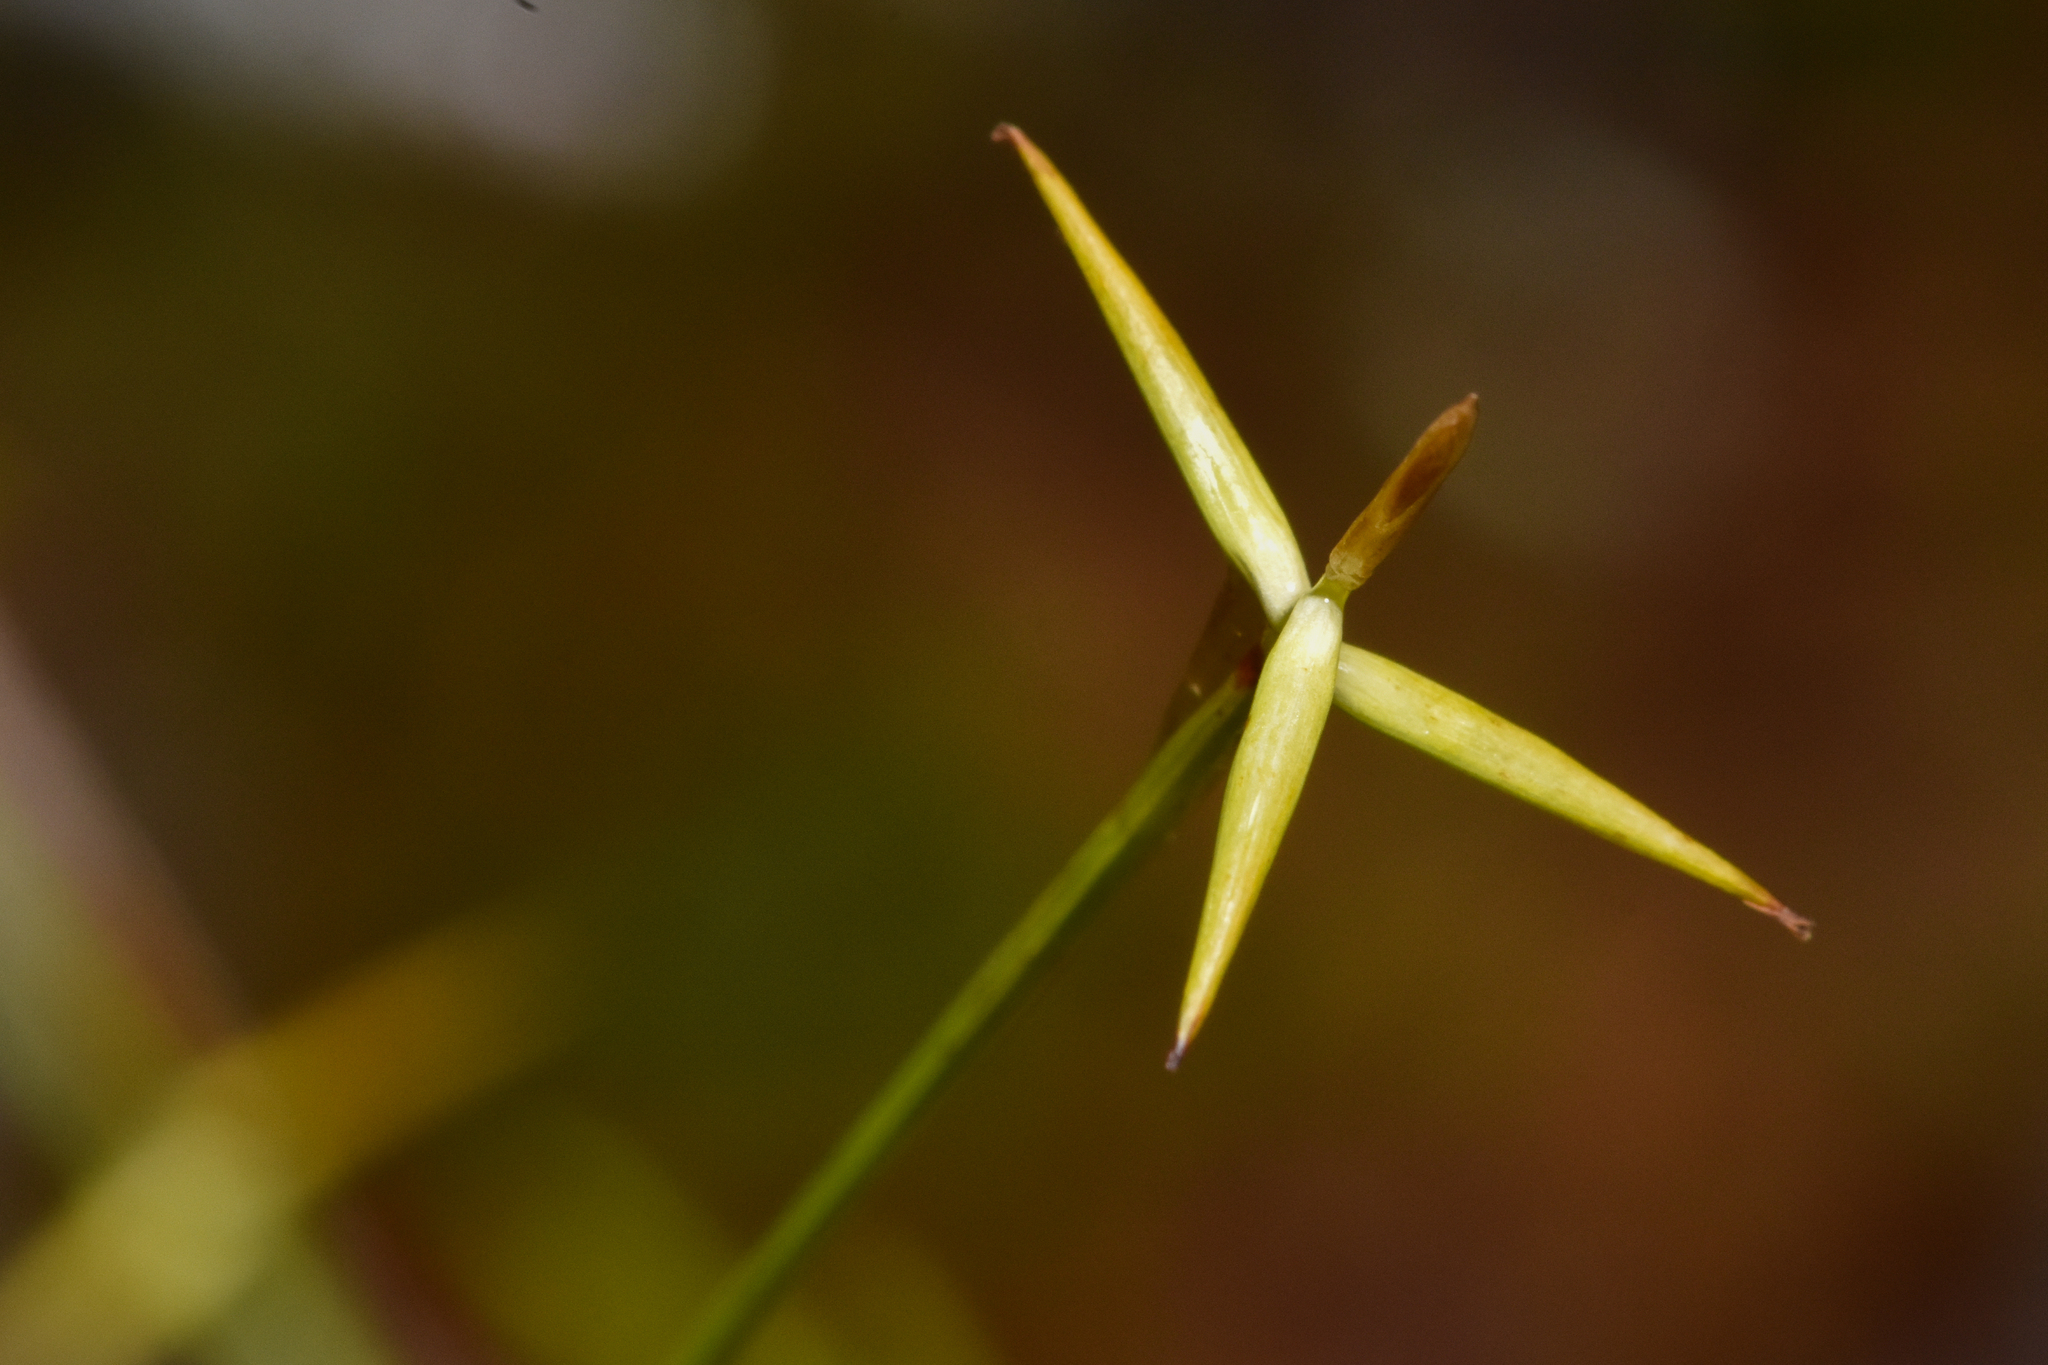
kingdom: Plantae
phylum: Tracheophyta
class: Liliopsida
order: Poales
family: Cyperaceae
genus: Carex
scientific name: Carex pauciflora
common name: Few-flowered sedge
